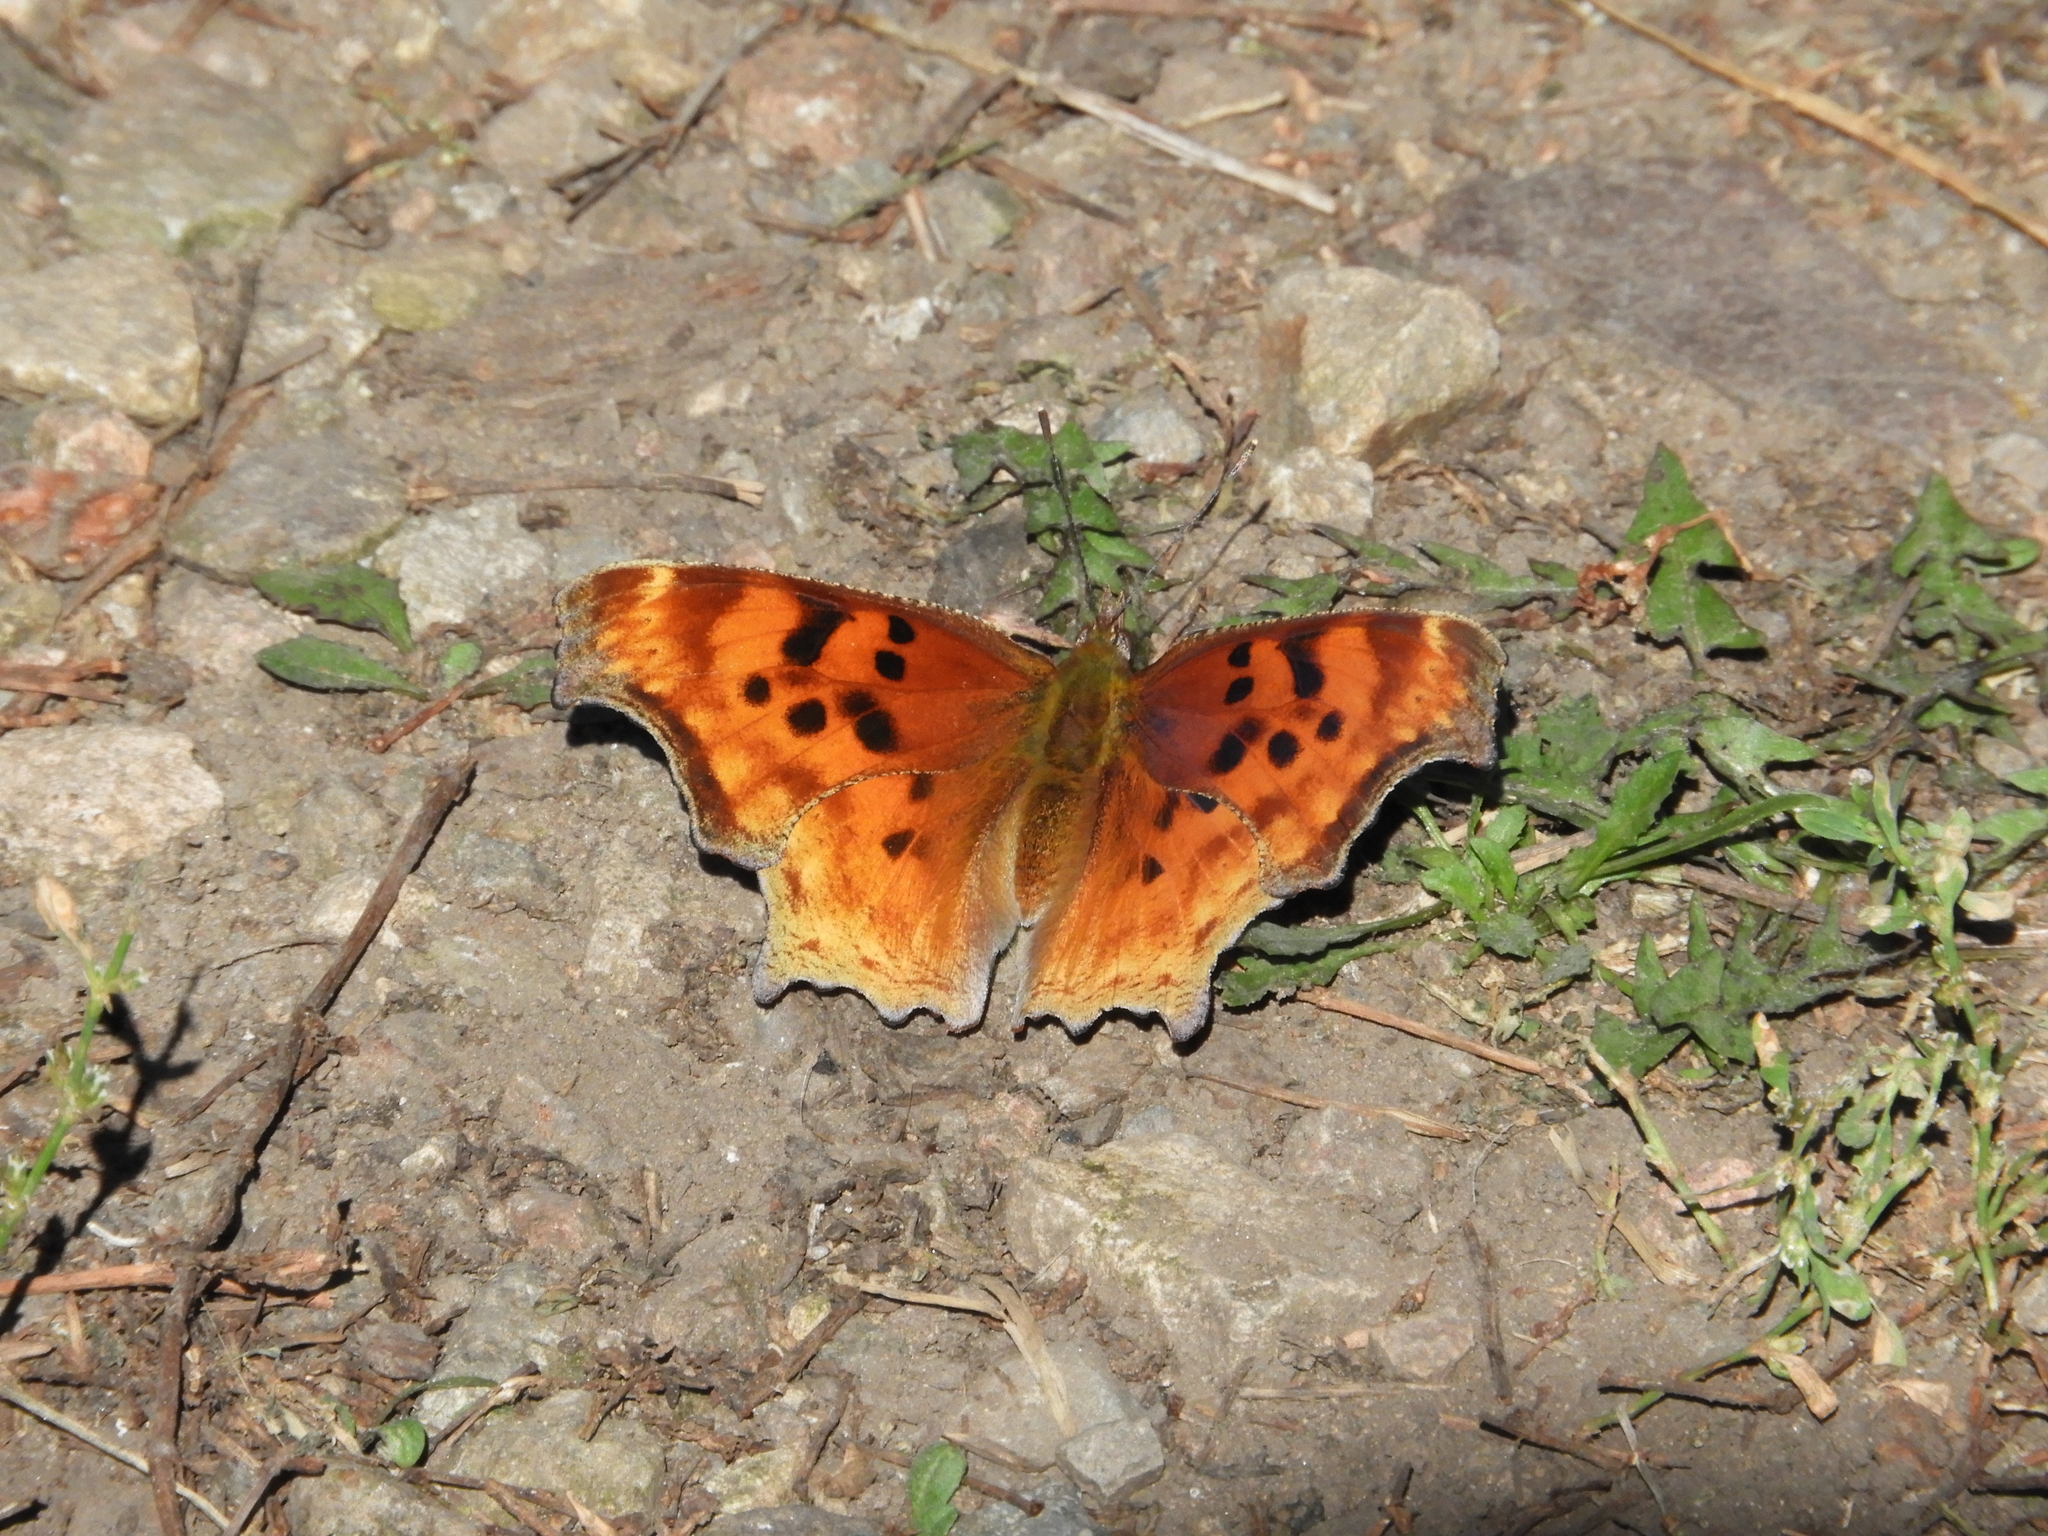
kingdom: Animalia
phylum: Arthropoda
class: Insecta
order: Lepidoptera
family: Nymphalidae
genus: Polygonia
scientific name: Polygonia satyrus
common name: Satyr angle wing
